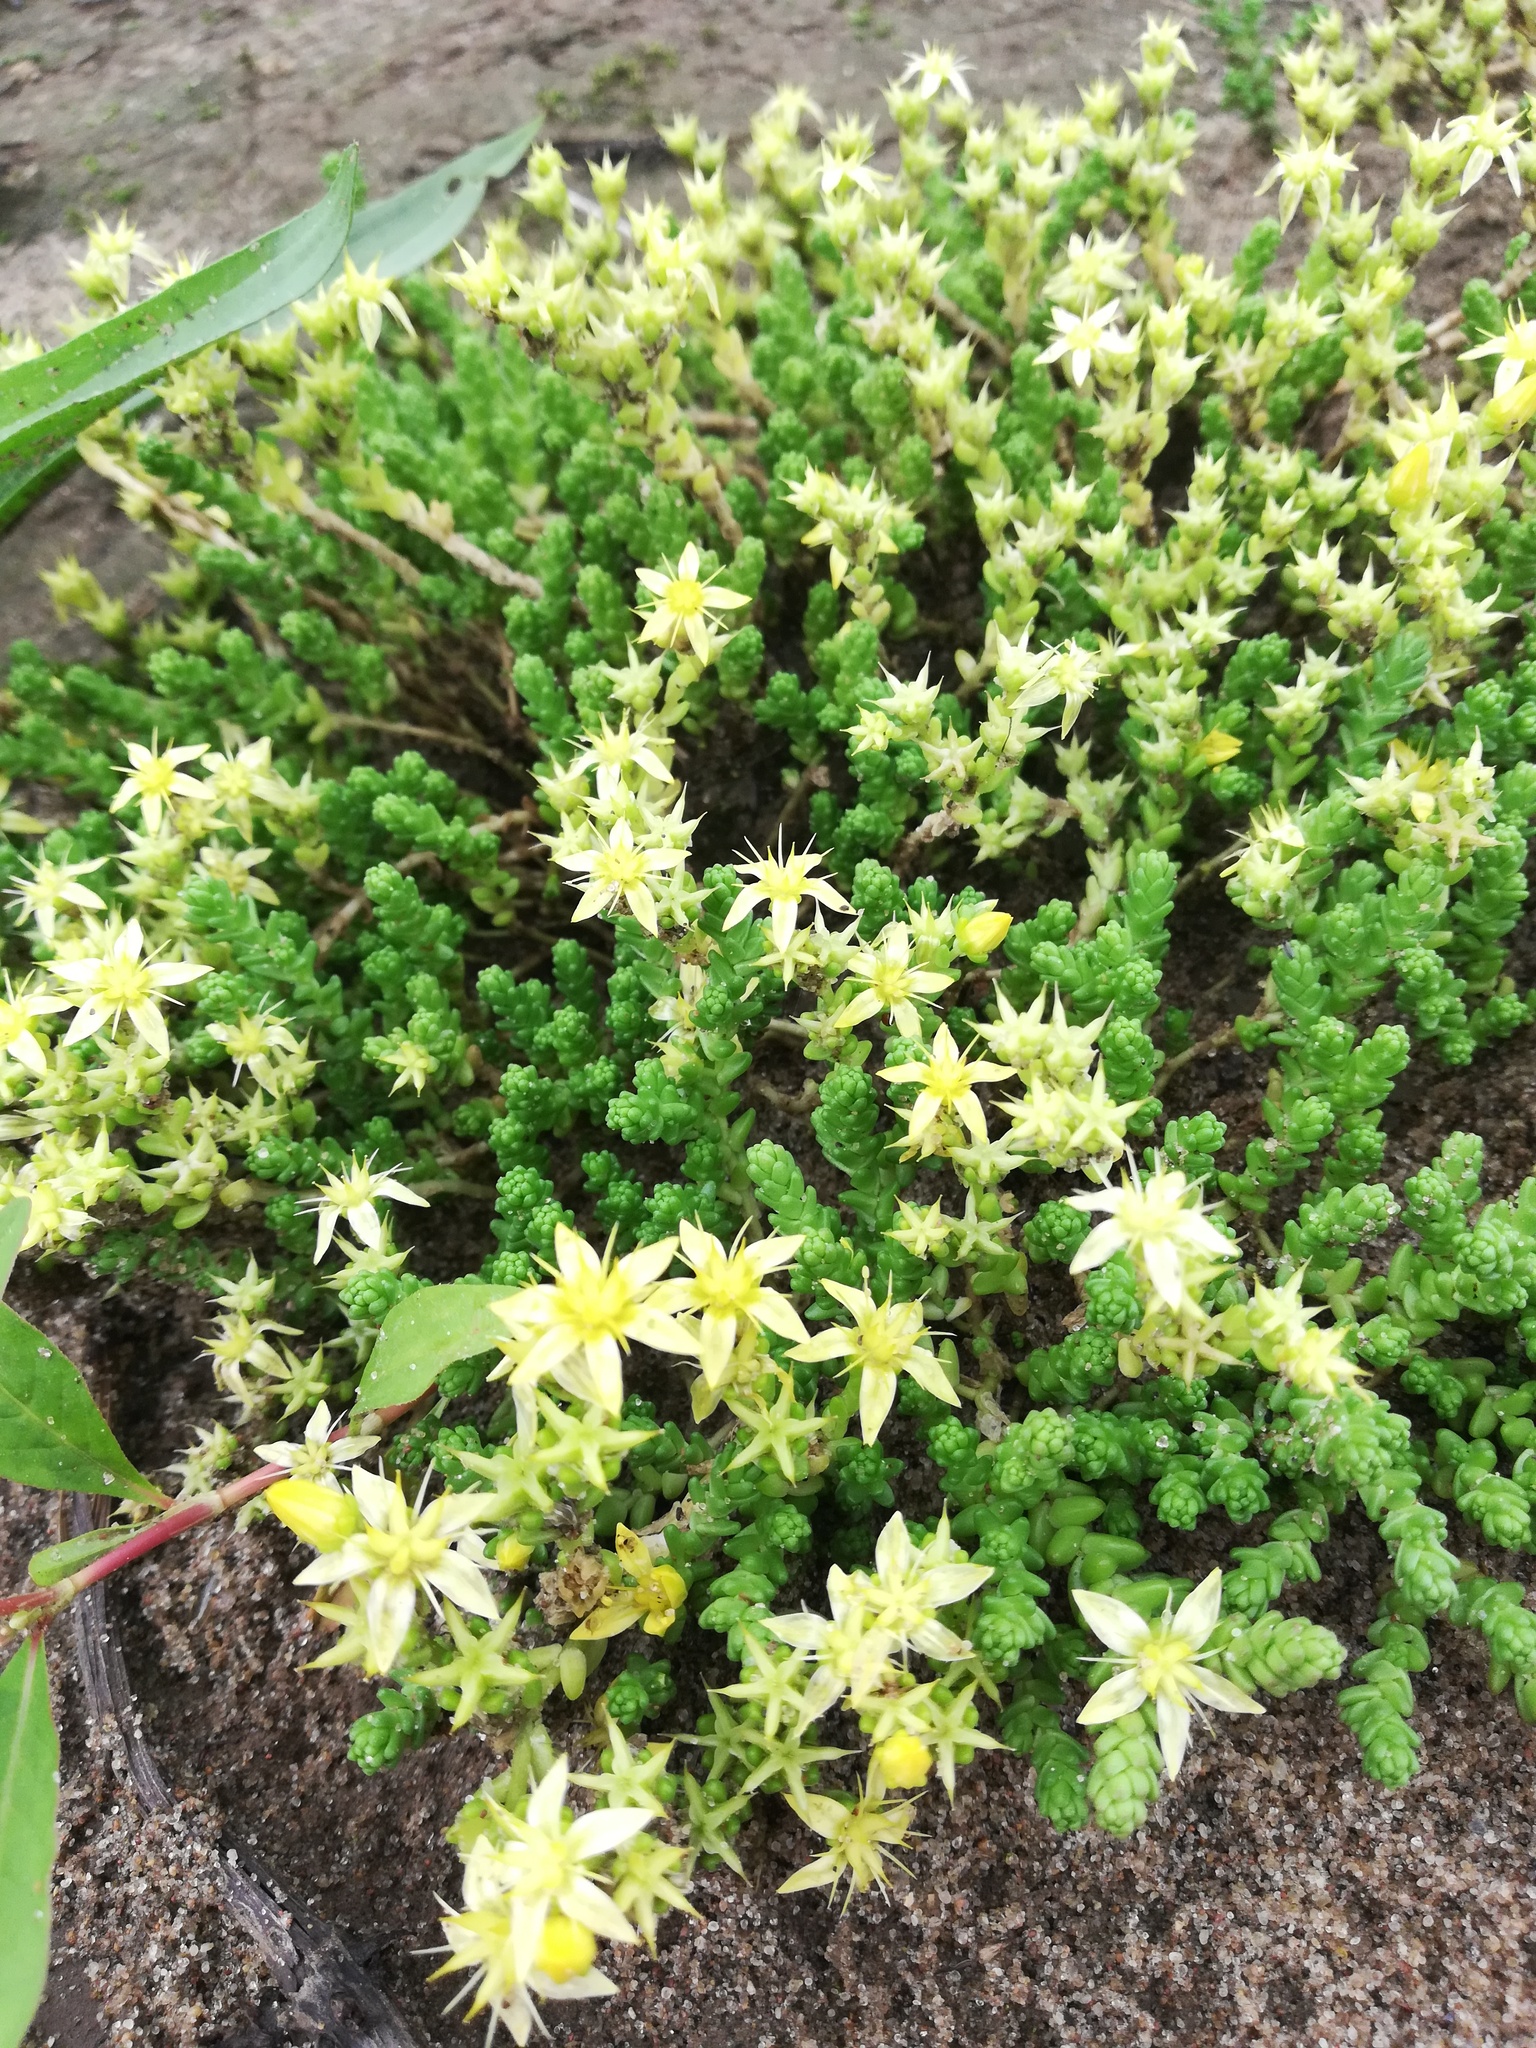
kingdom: Plantae
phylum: Tracheophyta
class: Magnoliopsida
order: Saxifragales
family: Crassulaceae
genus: Sedum
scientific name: Sedum acre
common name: Biting stonecrop
